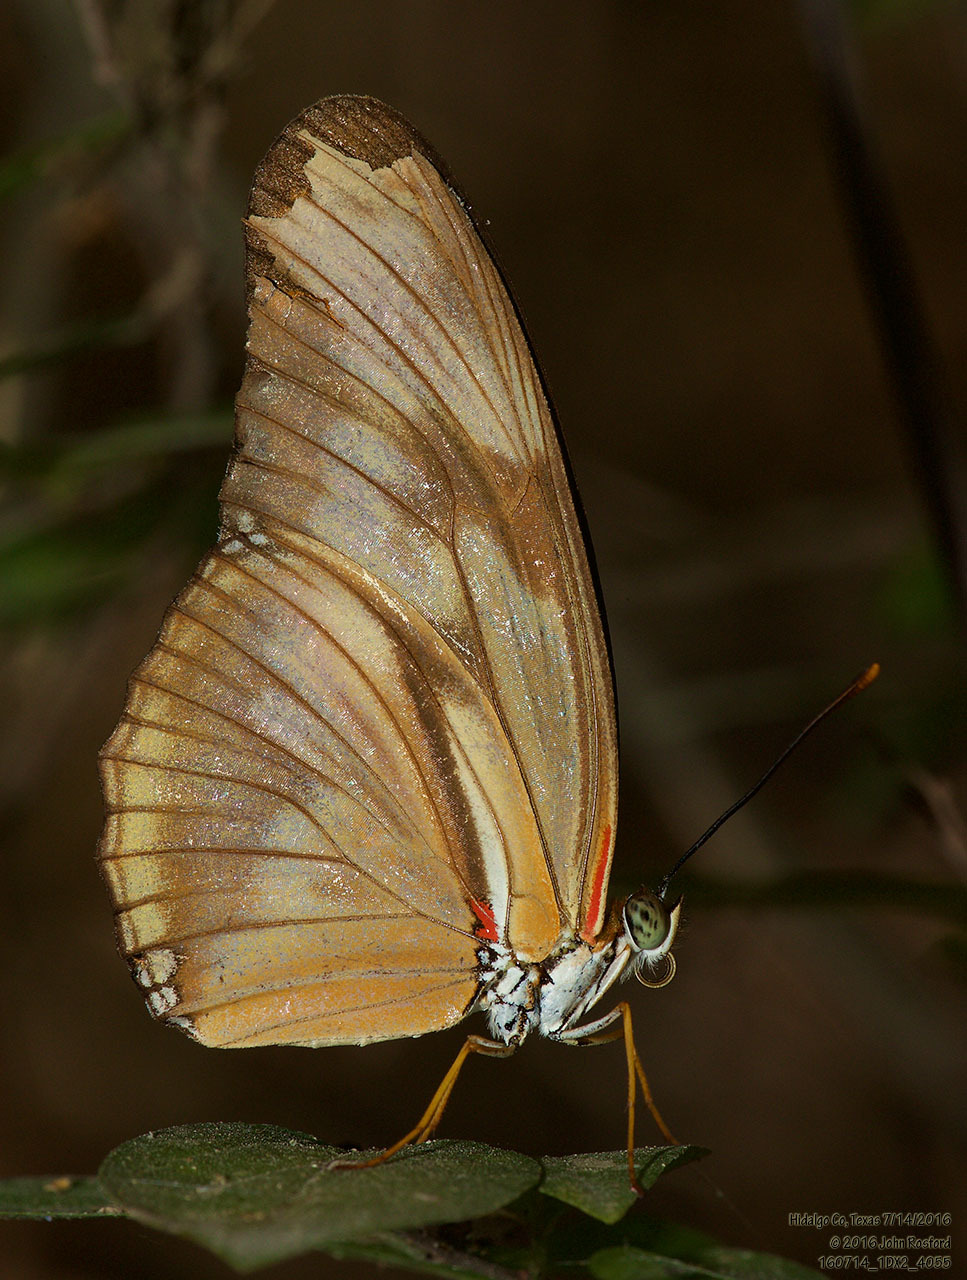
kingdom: Animalia
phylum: Arthropoda
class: Insecta
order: Lepidoptera
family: Nymphalidae
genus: Dryas
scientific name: Dryas iulia
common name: Flambeau
